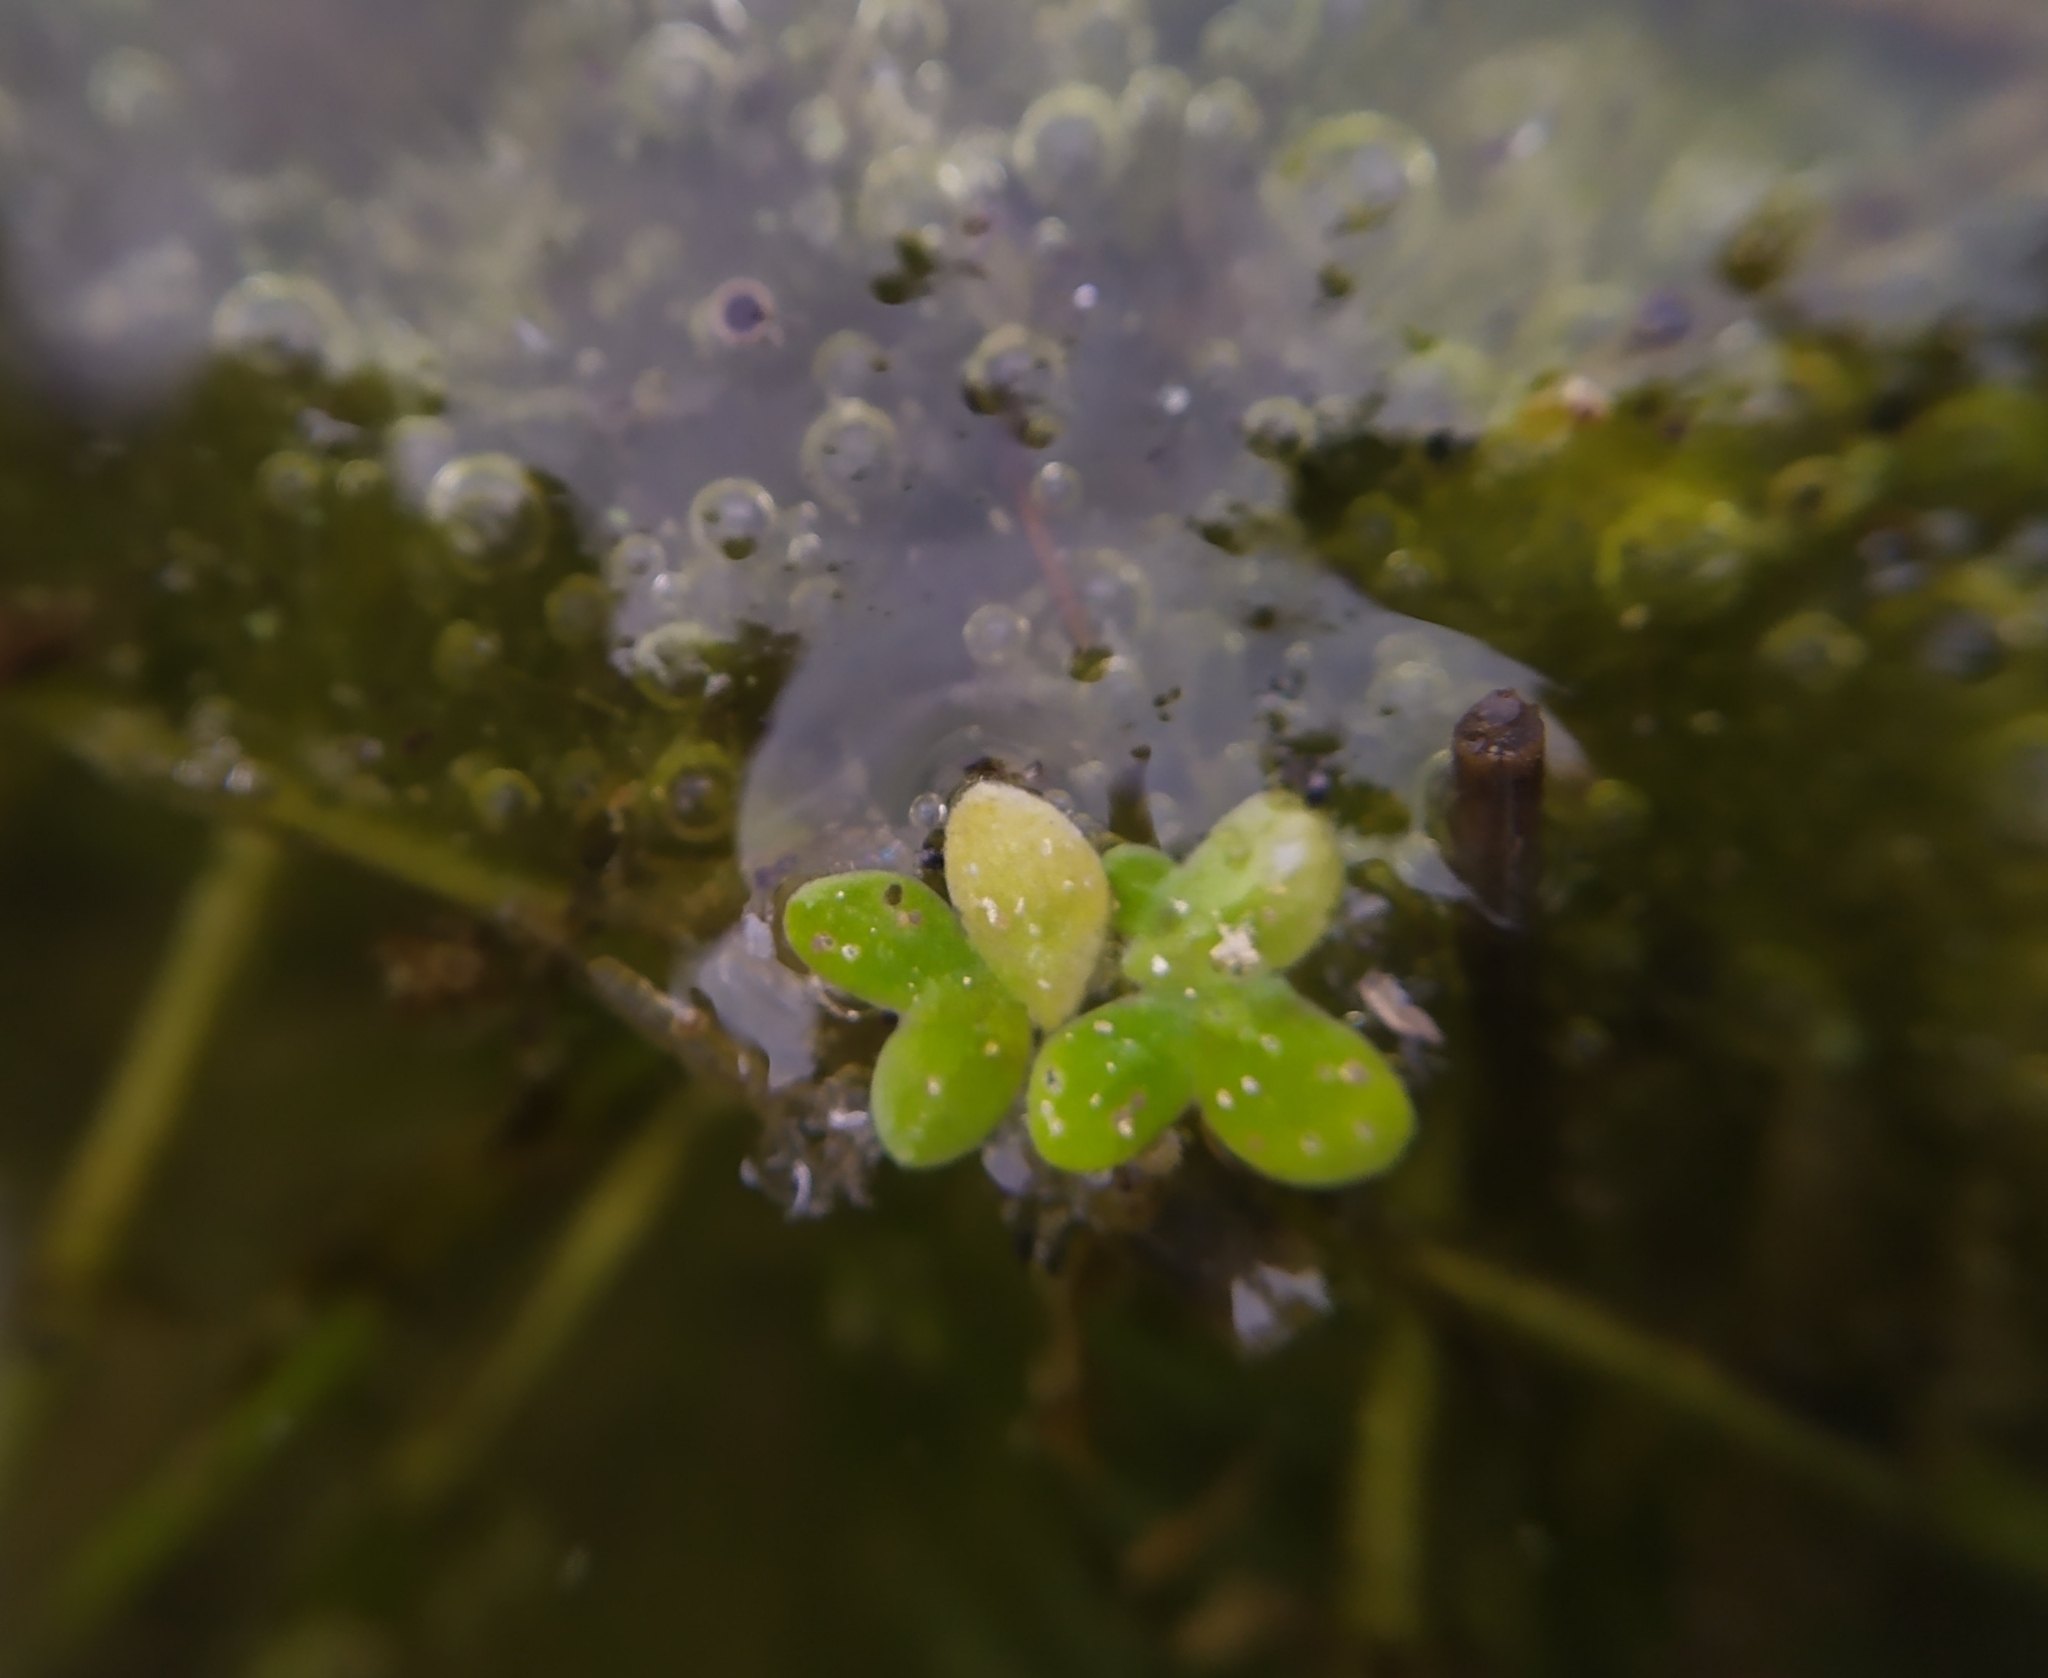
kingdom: Plantae
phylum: Tracheophyta
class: Liliopsida
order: Alismatales
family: Araceae
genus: Lemna
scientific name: Lemna minor
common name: Common duckweed
